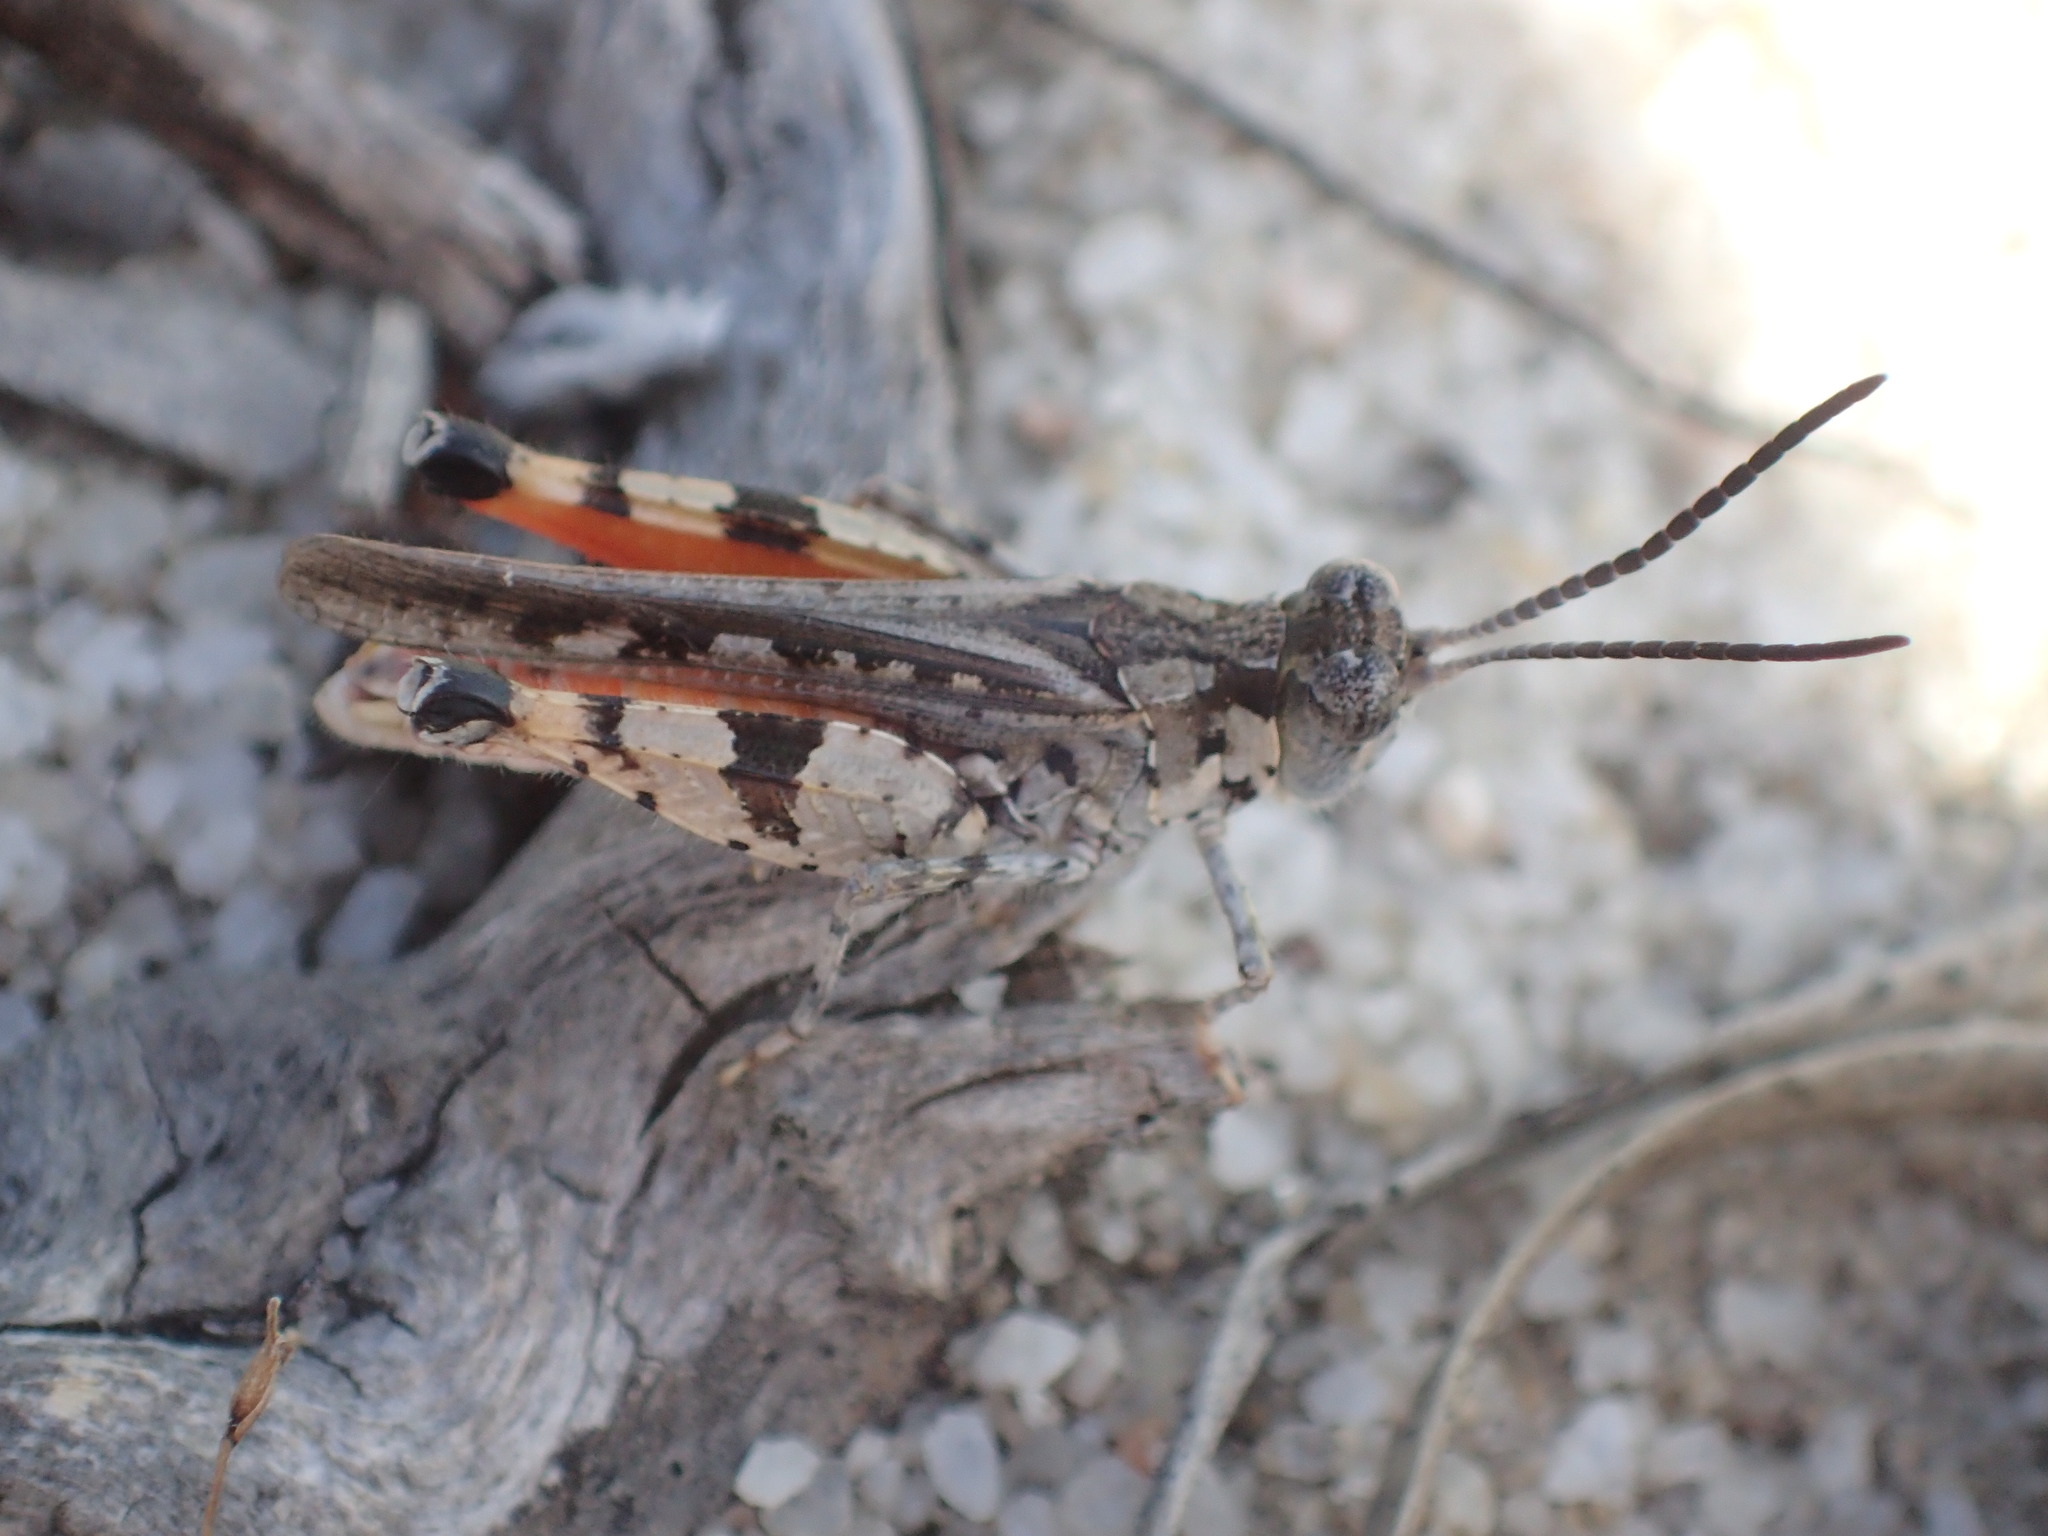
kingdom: Animalia
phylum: Arthropoda
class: Insecta
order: Orthoptera
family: Acrididae
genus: Urnisa
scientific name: Urnisa rugosa
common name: Red-legged urnisa
